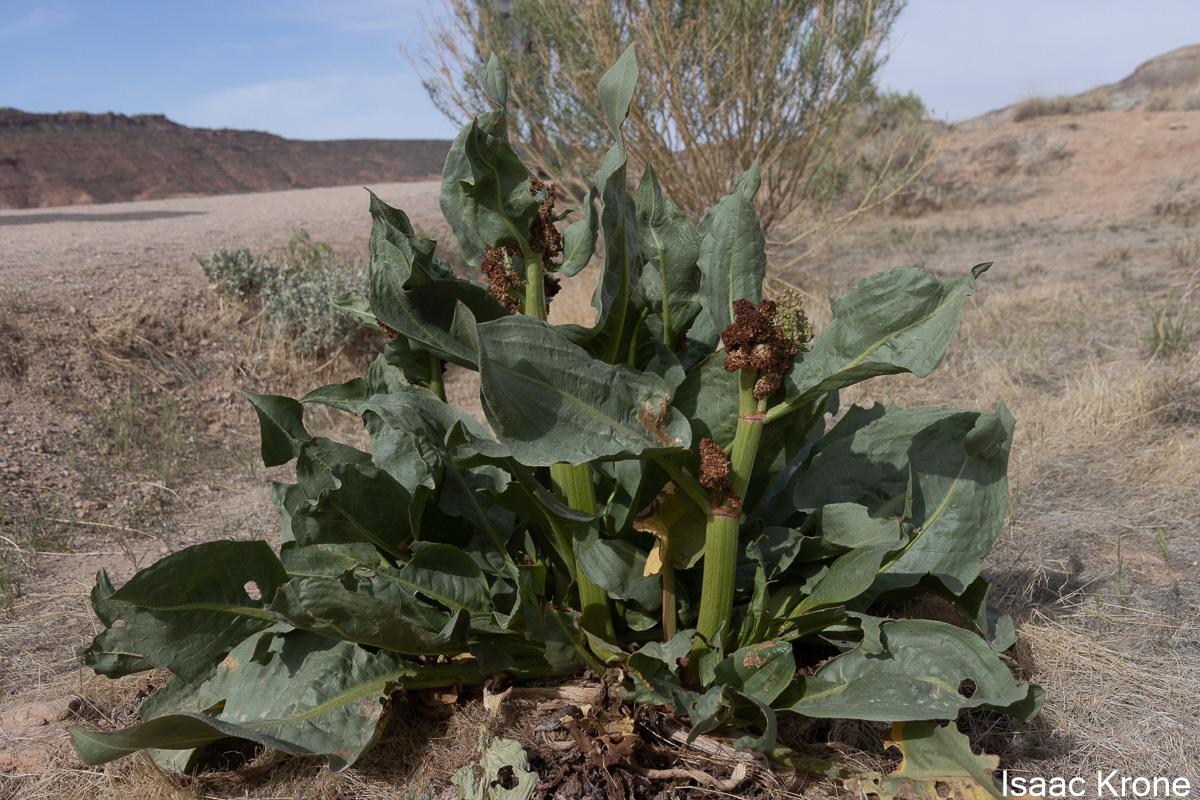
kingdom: Plantae
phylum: Tracheophyta
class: Magnoliopsida
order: Caryophyllales
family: Polygonaceae
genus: Rumex
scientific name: Rumex hymenosepalus
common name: Ganagra
